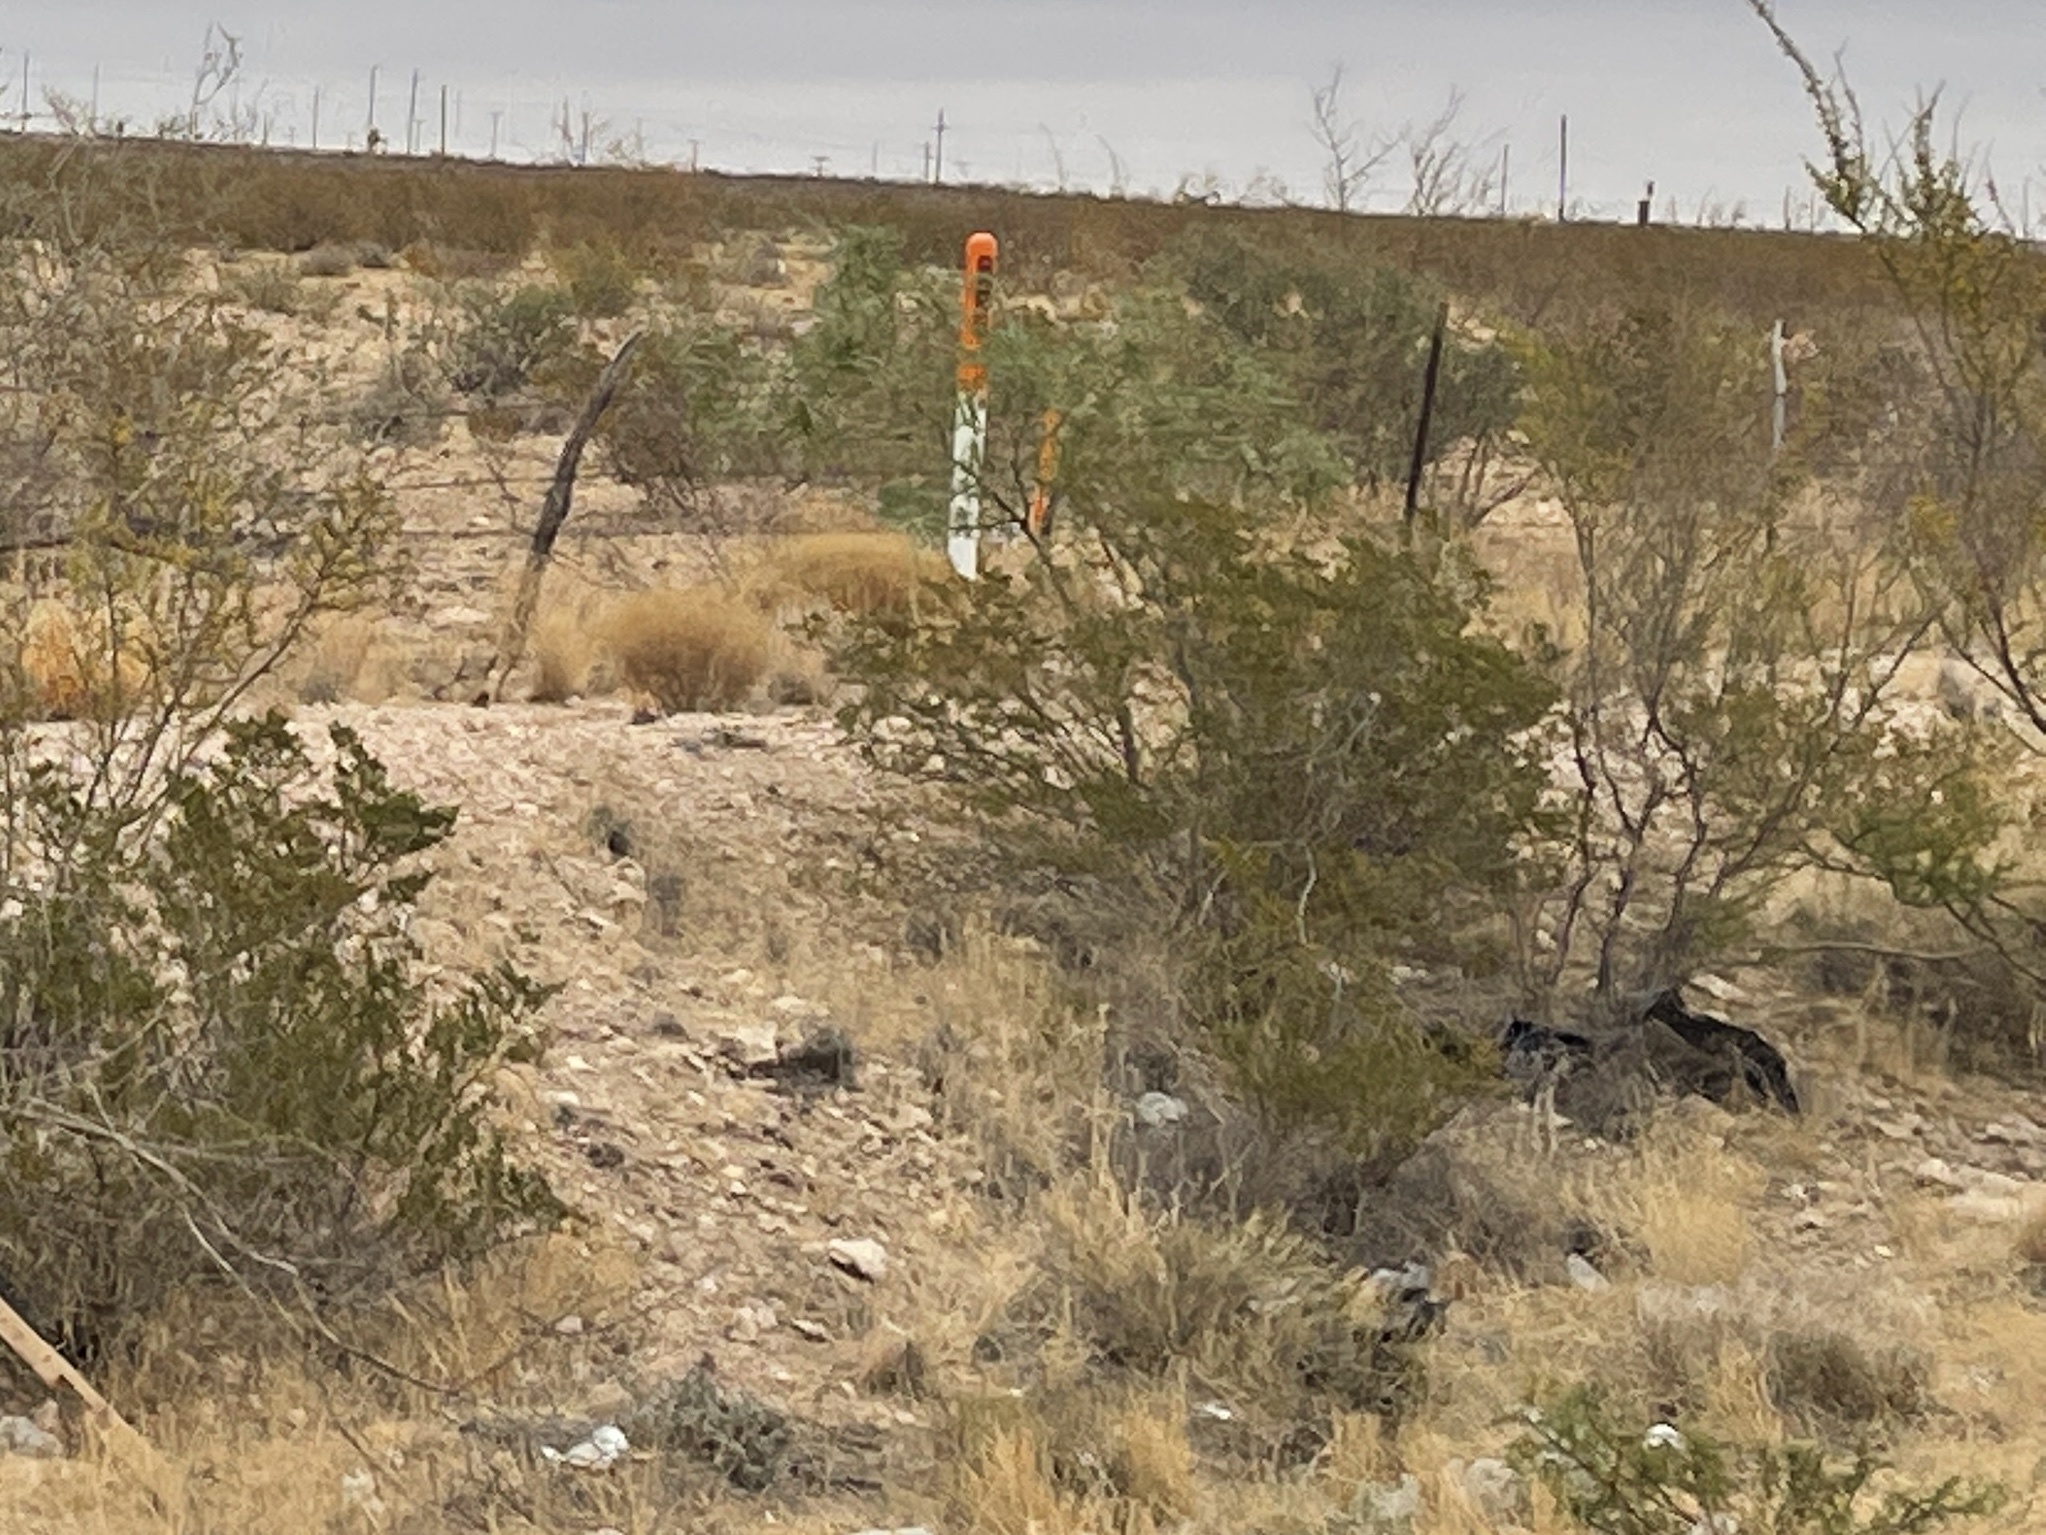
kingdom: Plantae
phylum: Tracheophyta
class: Magnoliopsida
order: Zygophyllales
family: Zygophyllaceae
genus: Larrea
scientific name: Larrea tridentata
